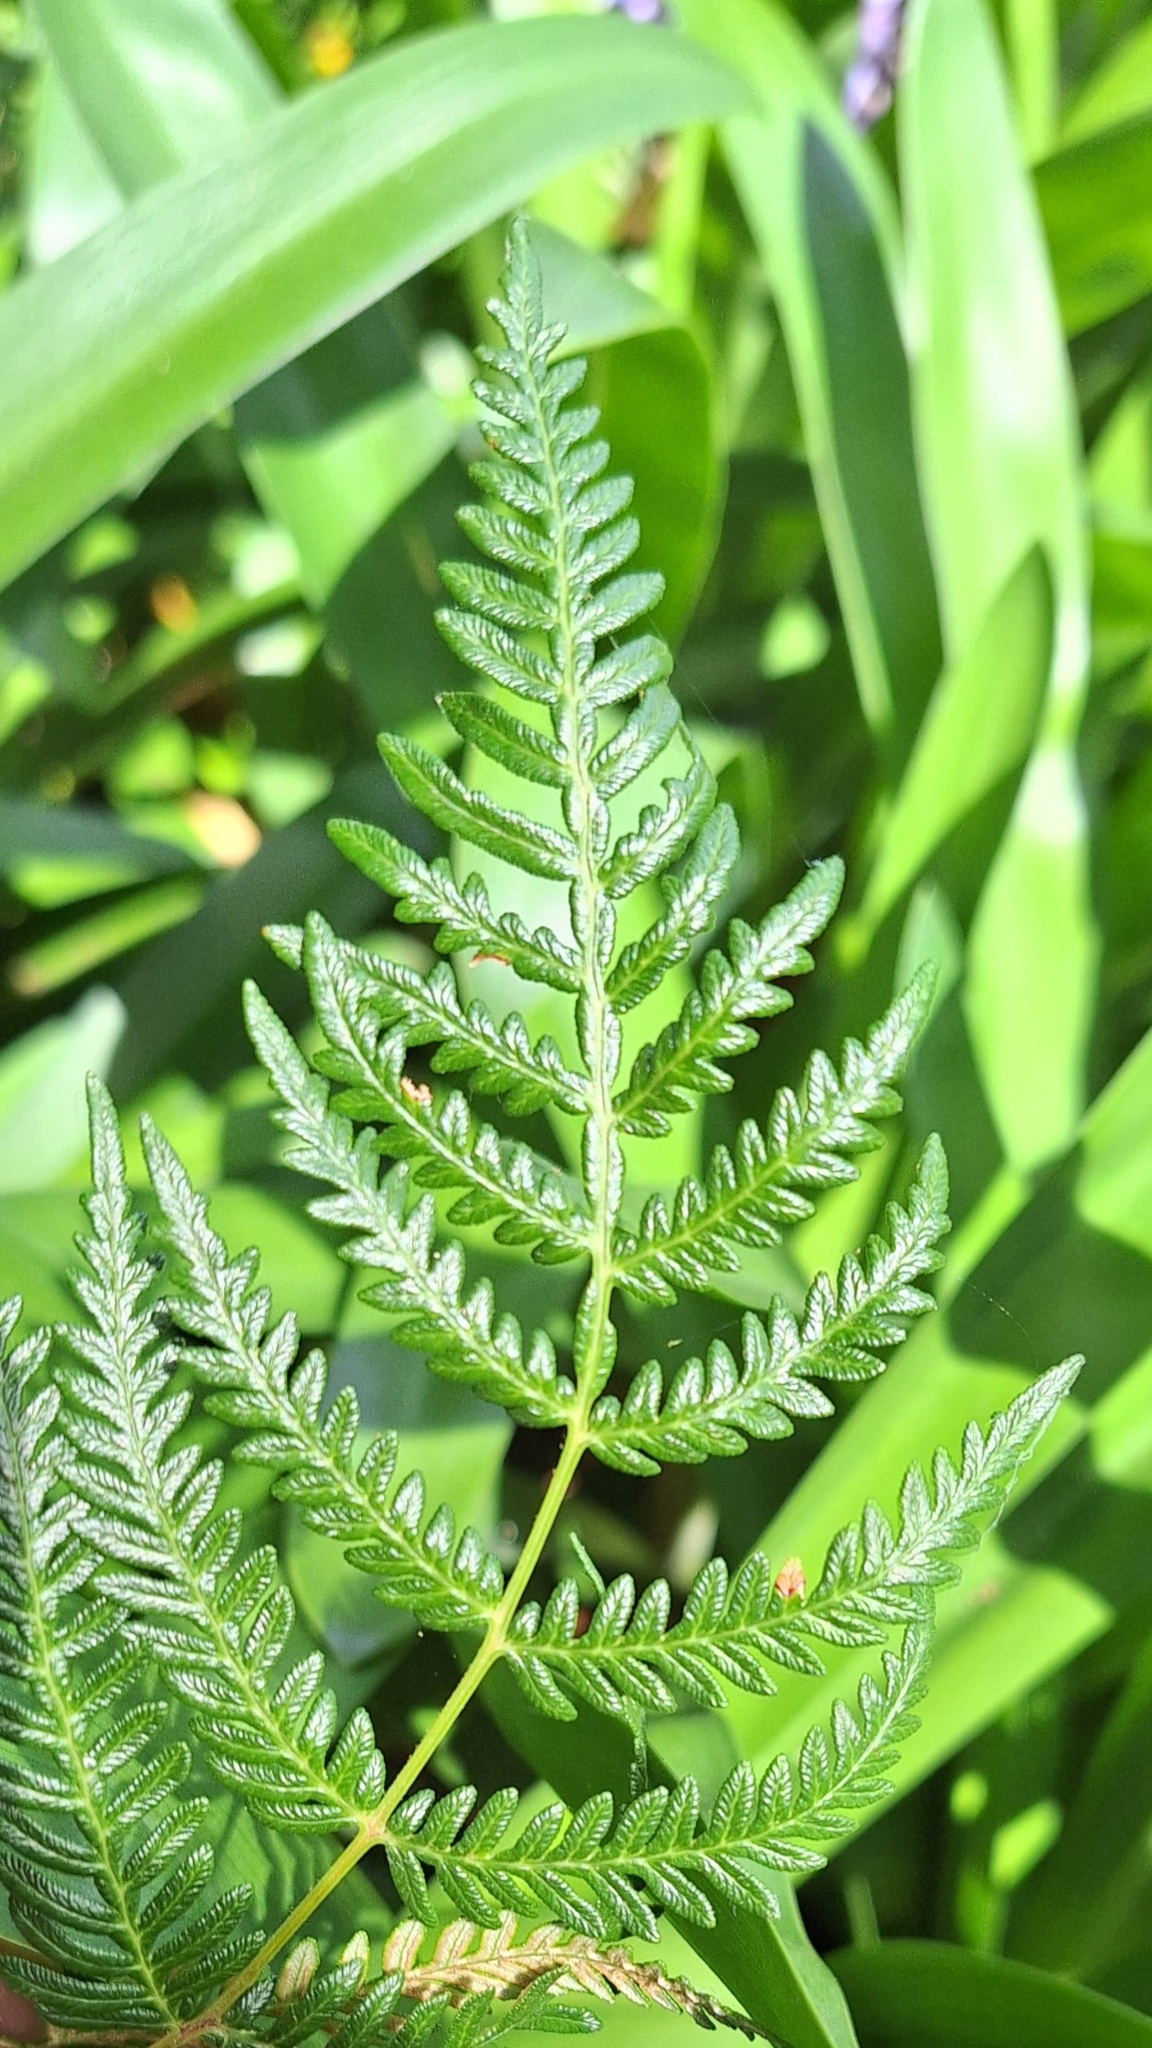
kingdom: Plantae
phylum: Tracheophyta
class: Polypodiopsida
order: Polypodiales
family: Dennstaedtiaceae
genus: Pteridium
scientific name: Pteridium esculentum
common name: Bracken fern
